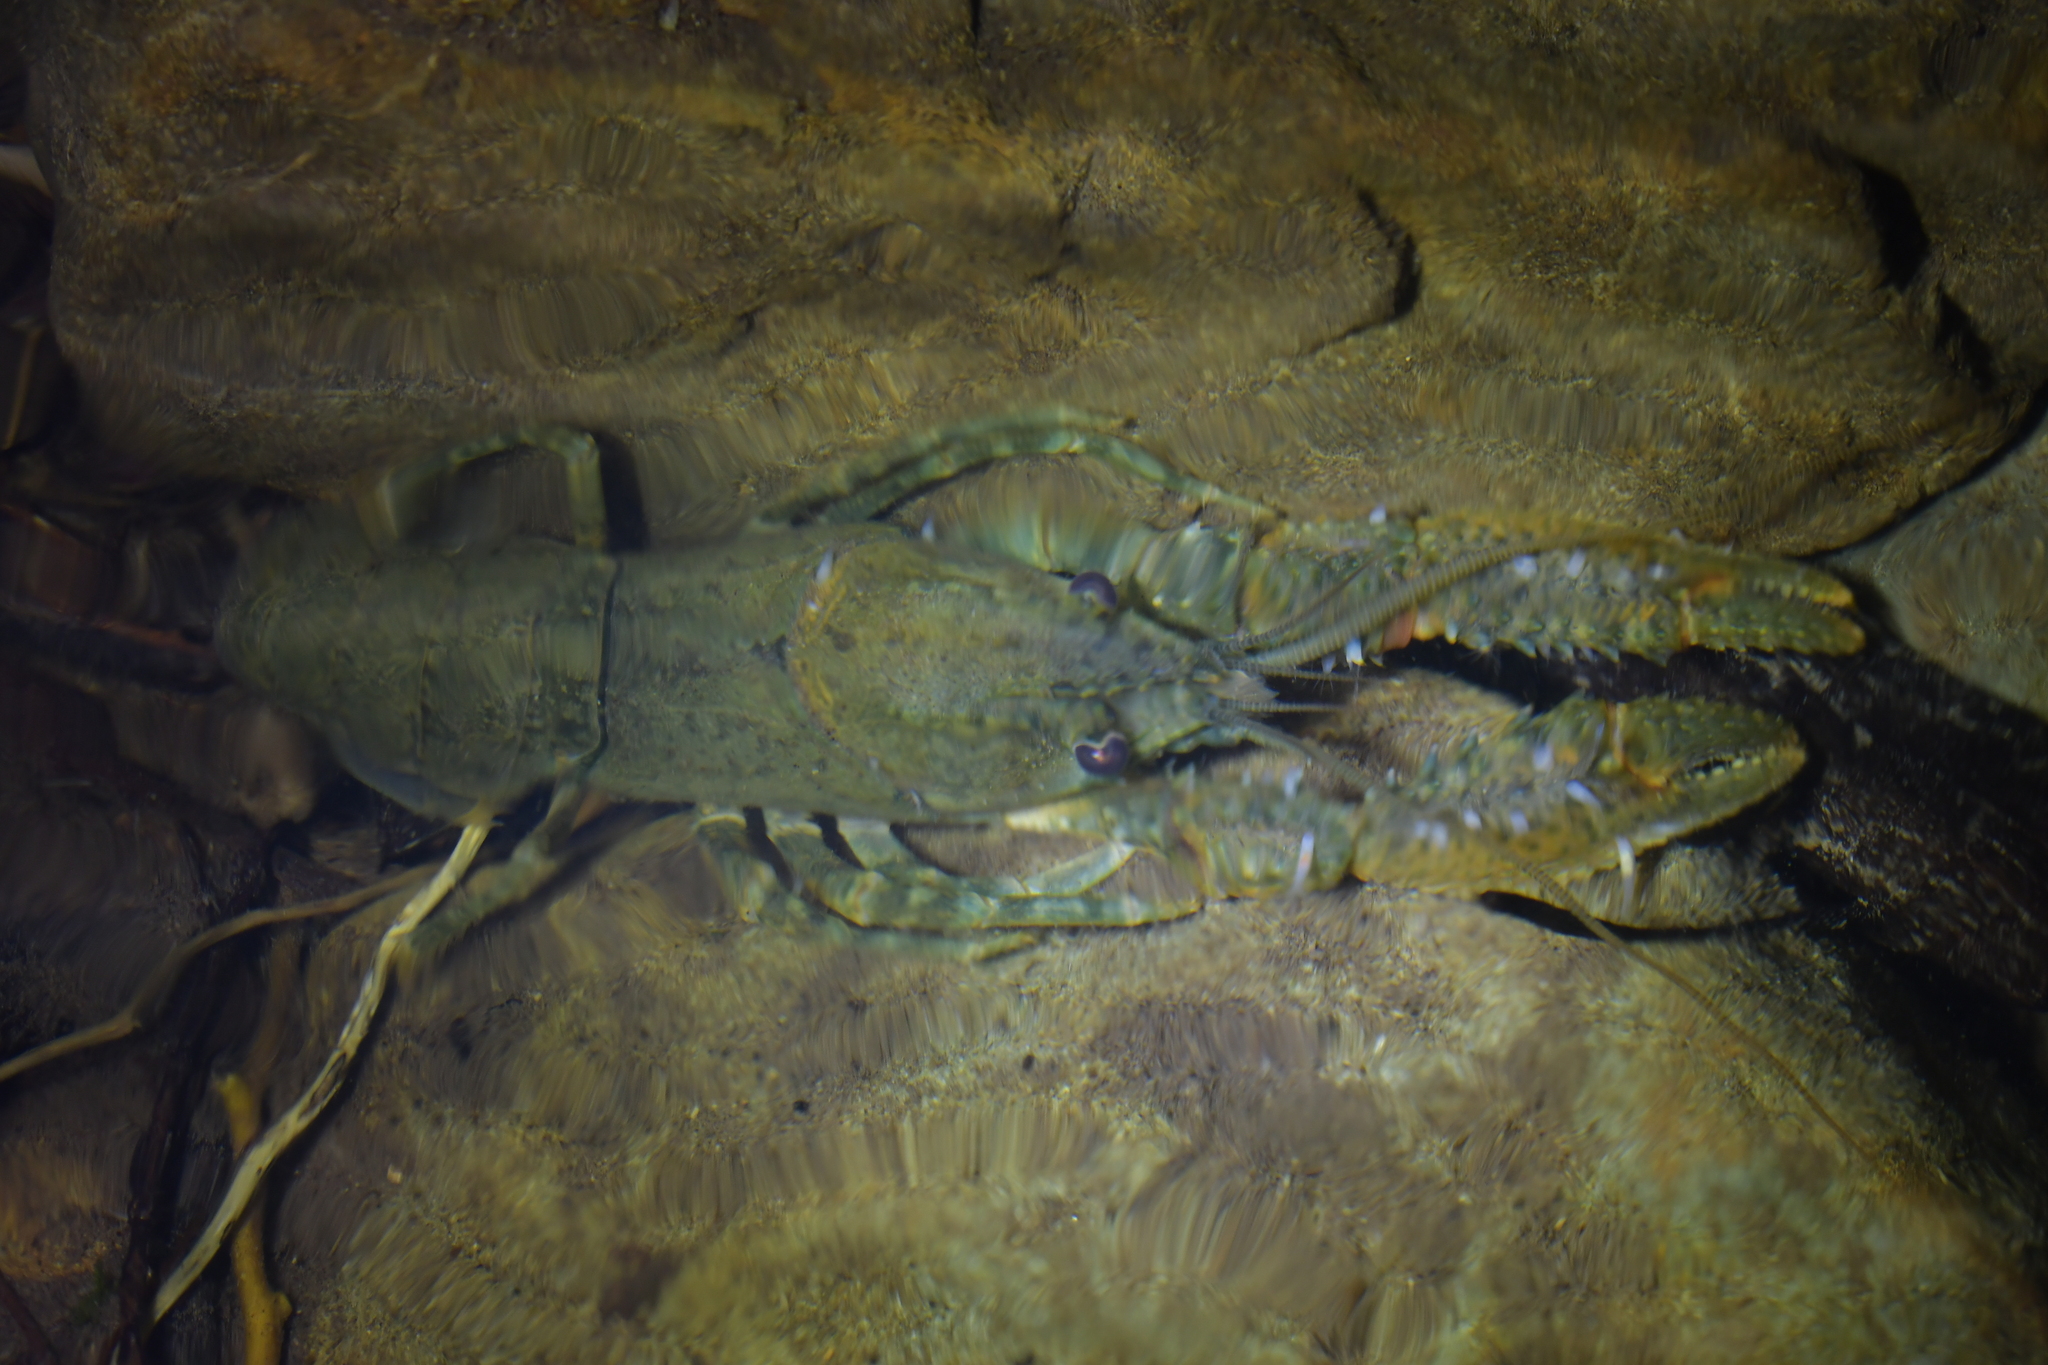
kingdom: Animalia
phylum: Arthropoda
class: Malacostraca
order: Decapoda
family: Parastacidae
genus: Paranephrops
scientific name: Paranephrops planifrons
